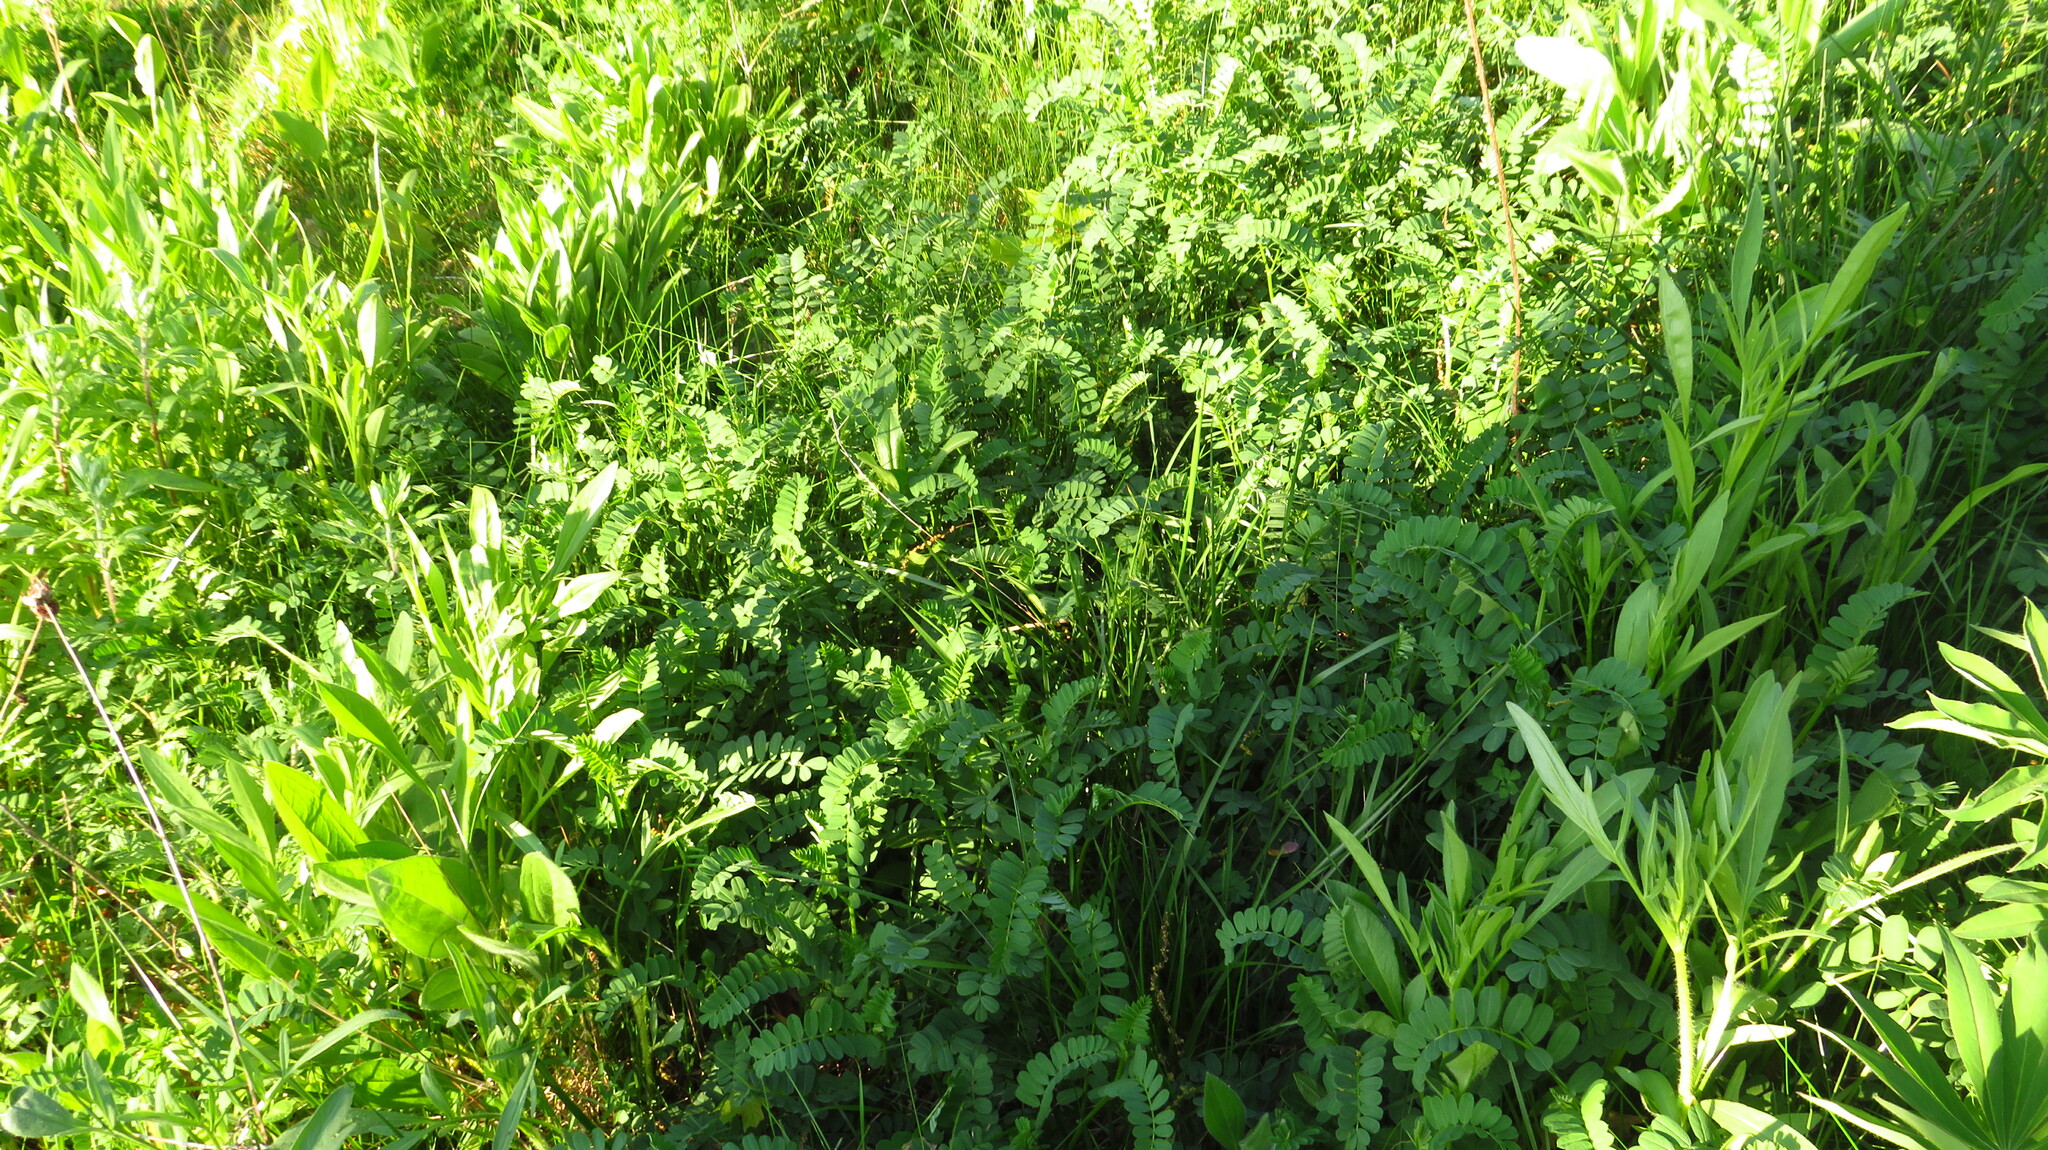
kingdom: Plantae
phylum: Tracheophyta
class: Magnoliopsida
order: Fabales
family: Fabaceae
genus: Coronilla
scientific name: Coronilla varia
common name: Crownvetch
